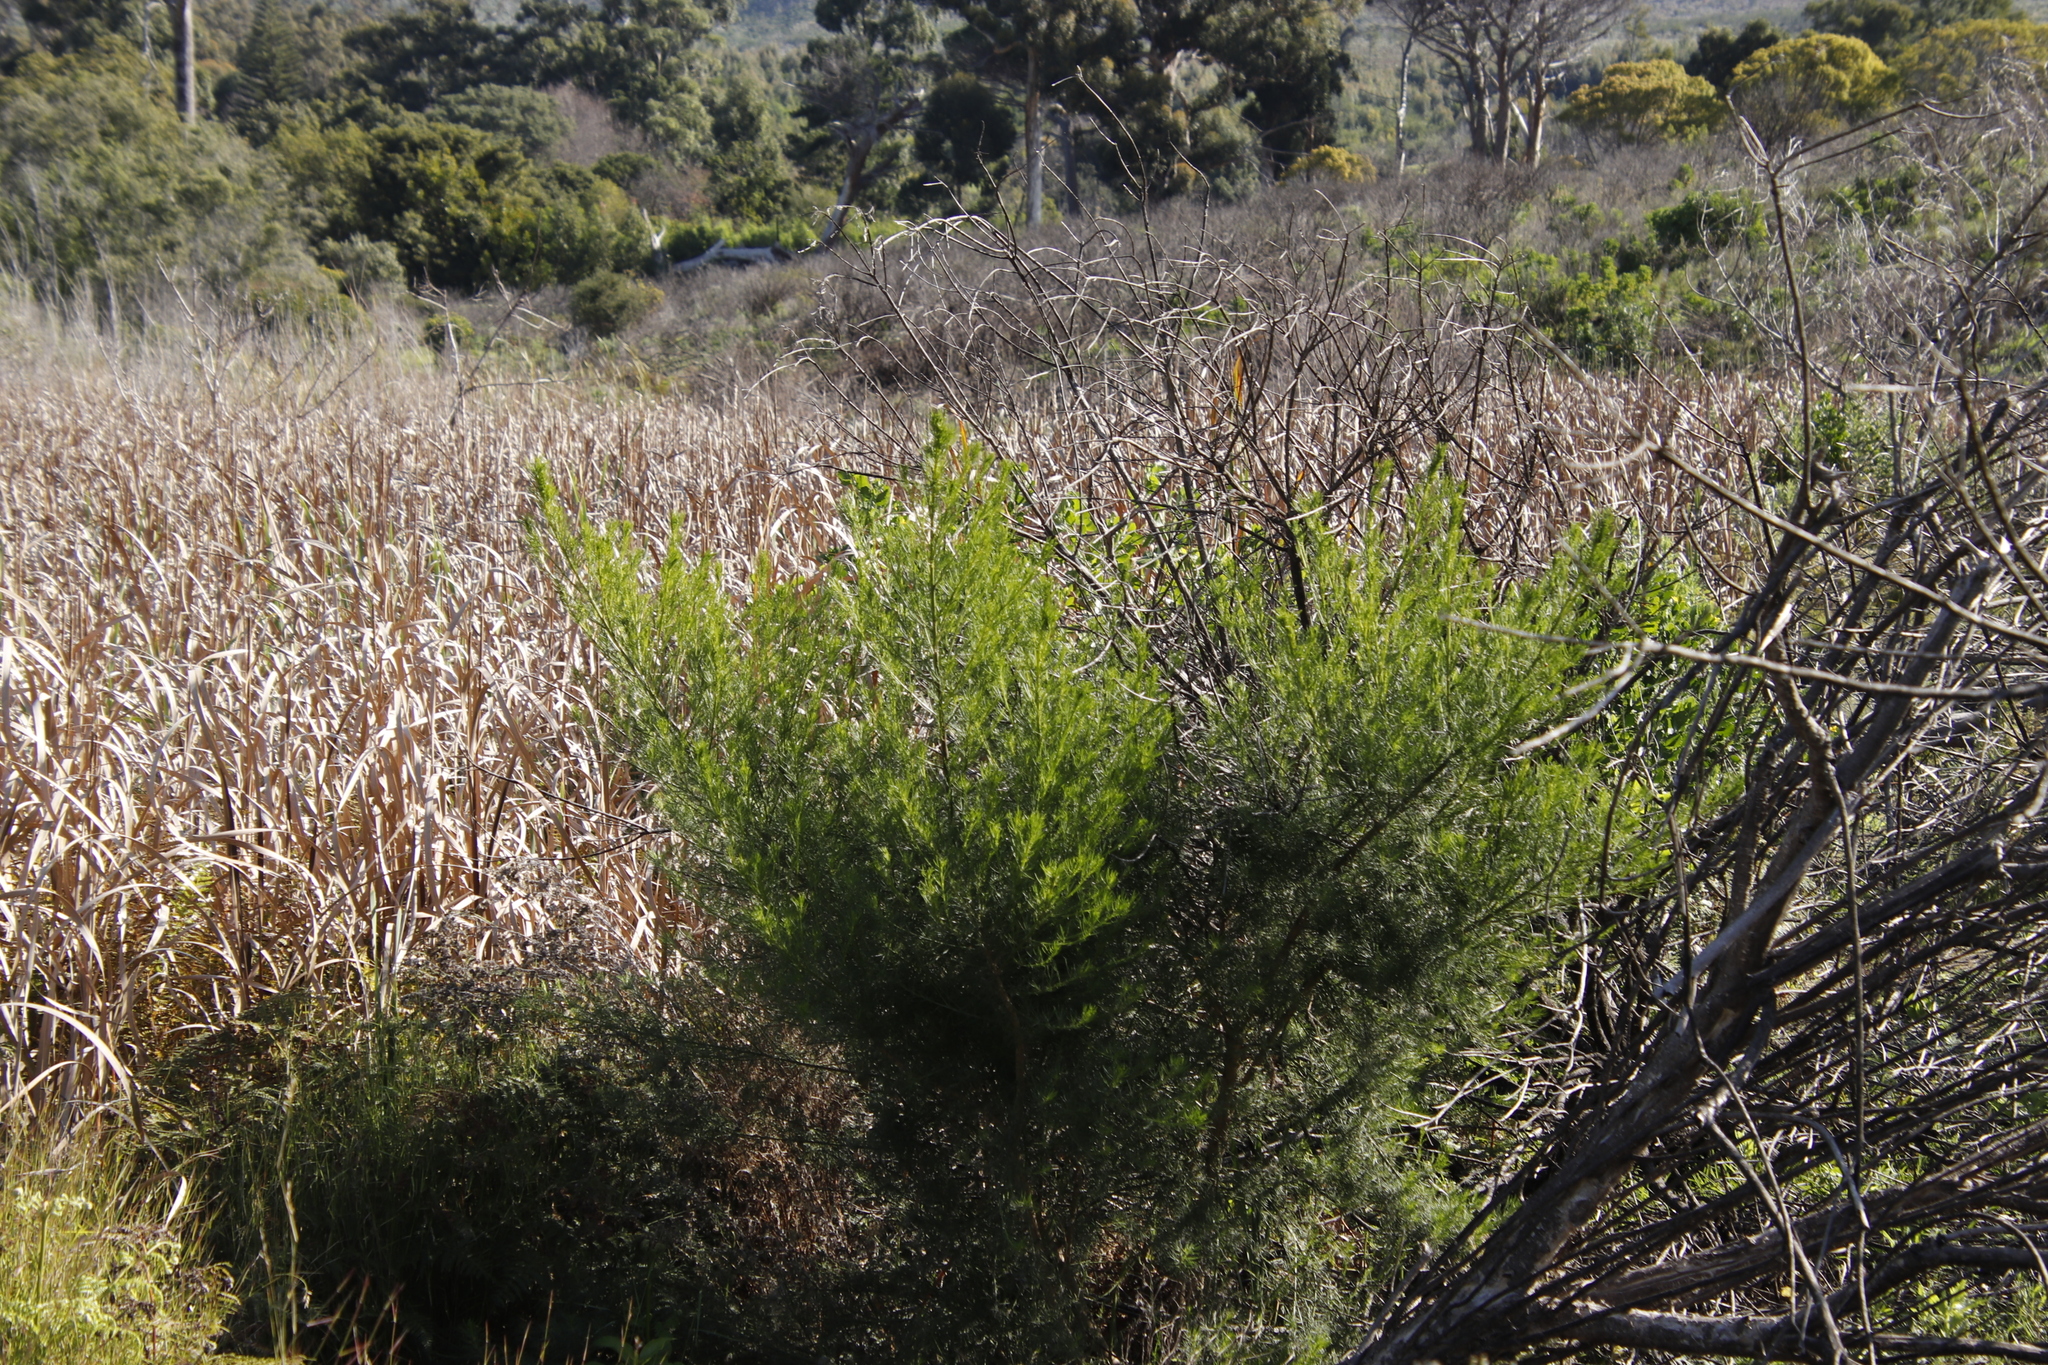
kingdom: Plantae
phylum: Tracheophyta
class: Magnoliopsida
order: Fabales
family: Fabaceae
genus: Psoralea
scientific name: Psoralea pinnata
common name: African scurfpea
